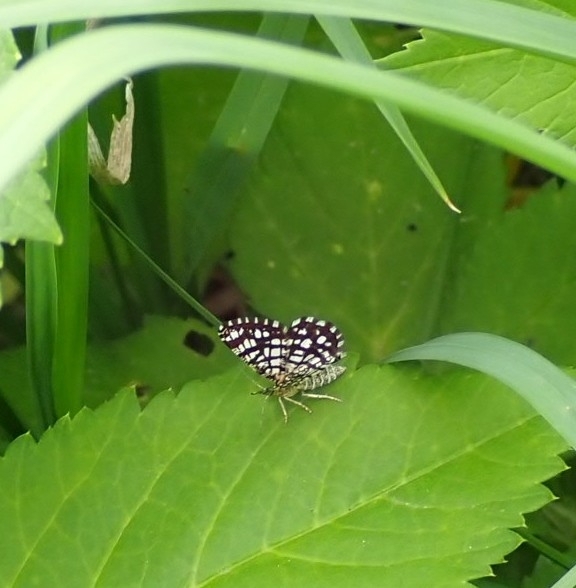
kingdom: Animalia
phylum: Arthropoda
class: Insecta
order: Lepidoptera
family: Geometridae
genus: Chiasmia
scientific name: Chiasmia clathrata
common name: Latticed heath
